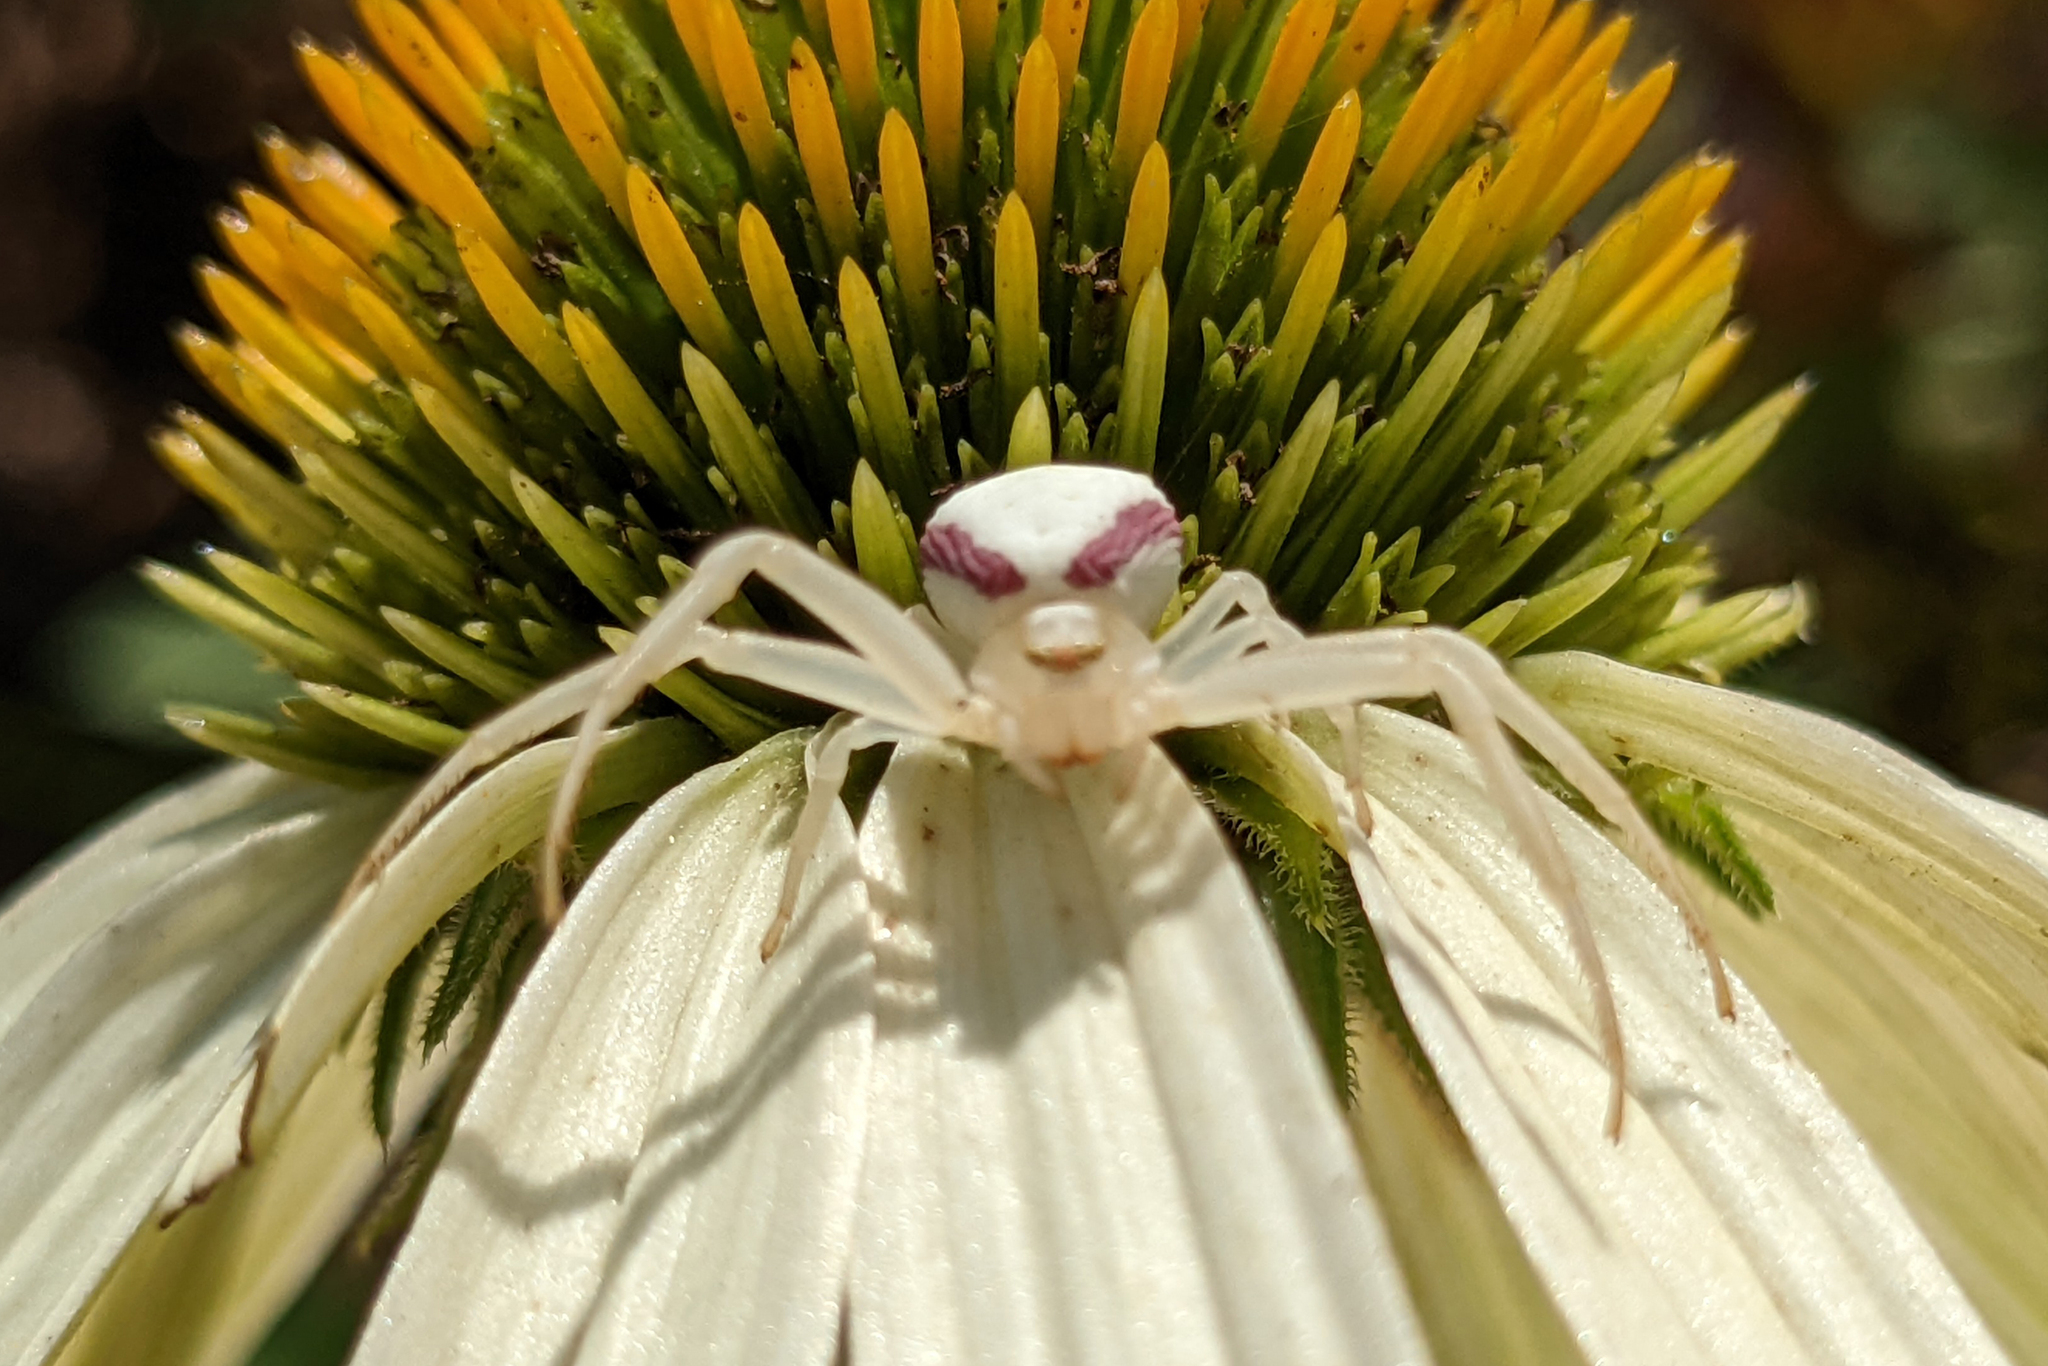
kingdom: Animalia
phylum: Arthropoda
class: Arachnida
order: Araneae
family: Thomisidae
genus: Misumena
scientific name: Misumena vatia
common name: Goldenrod crab spider
